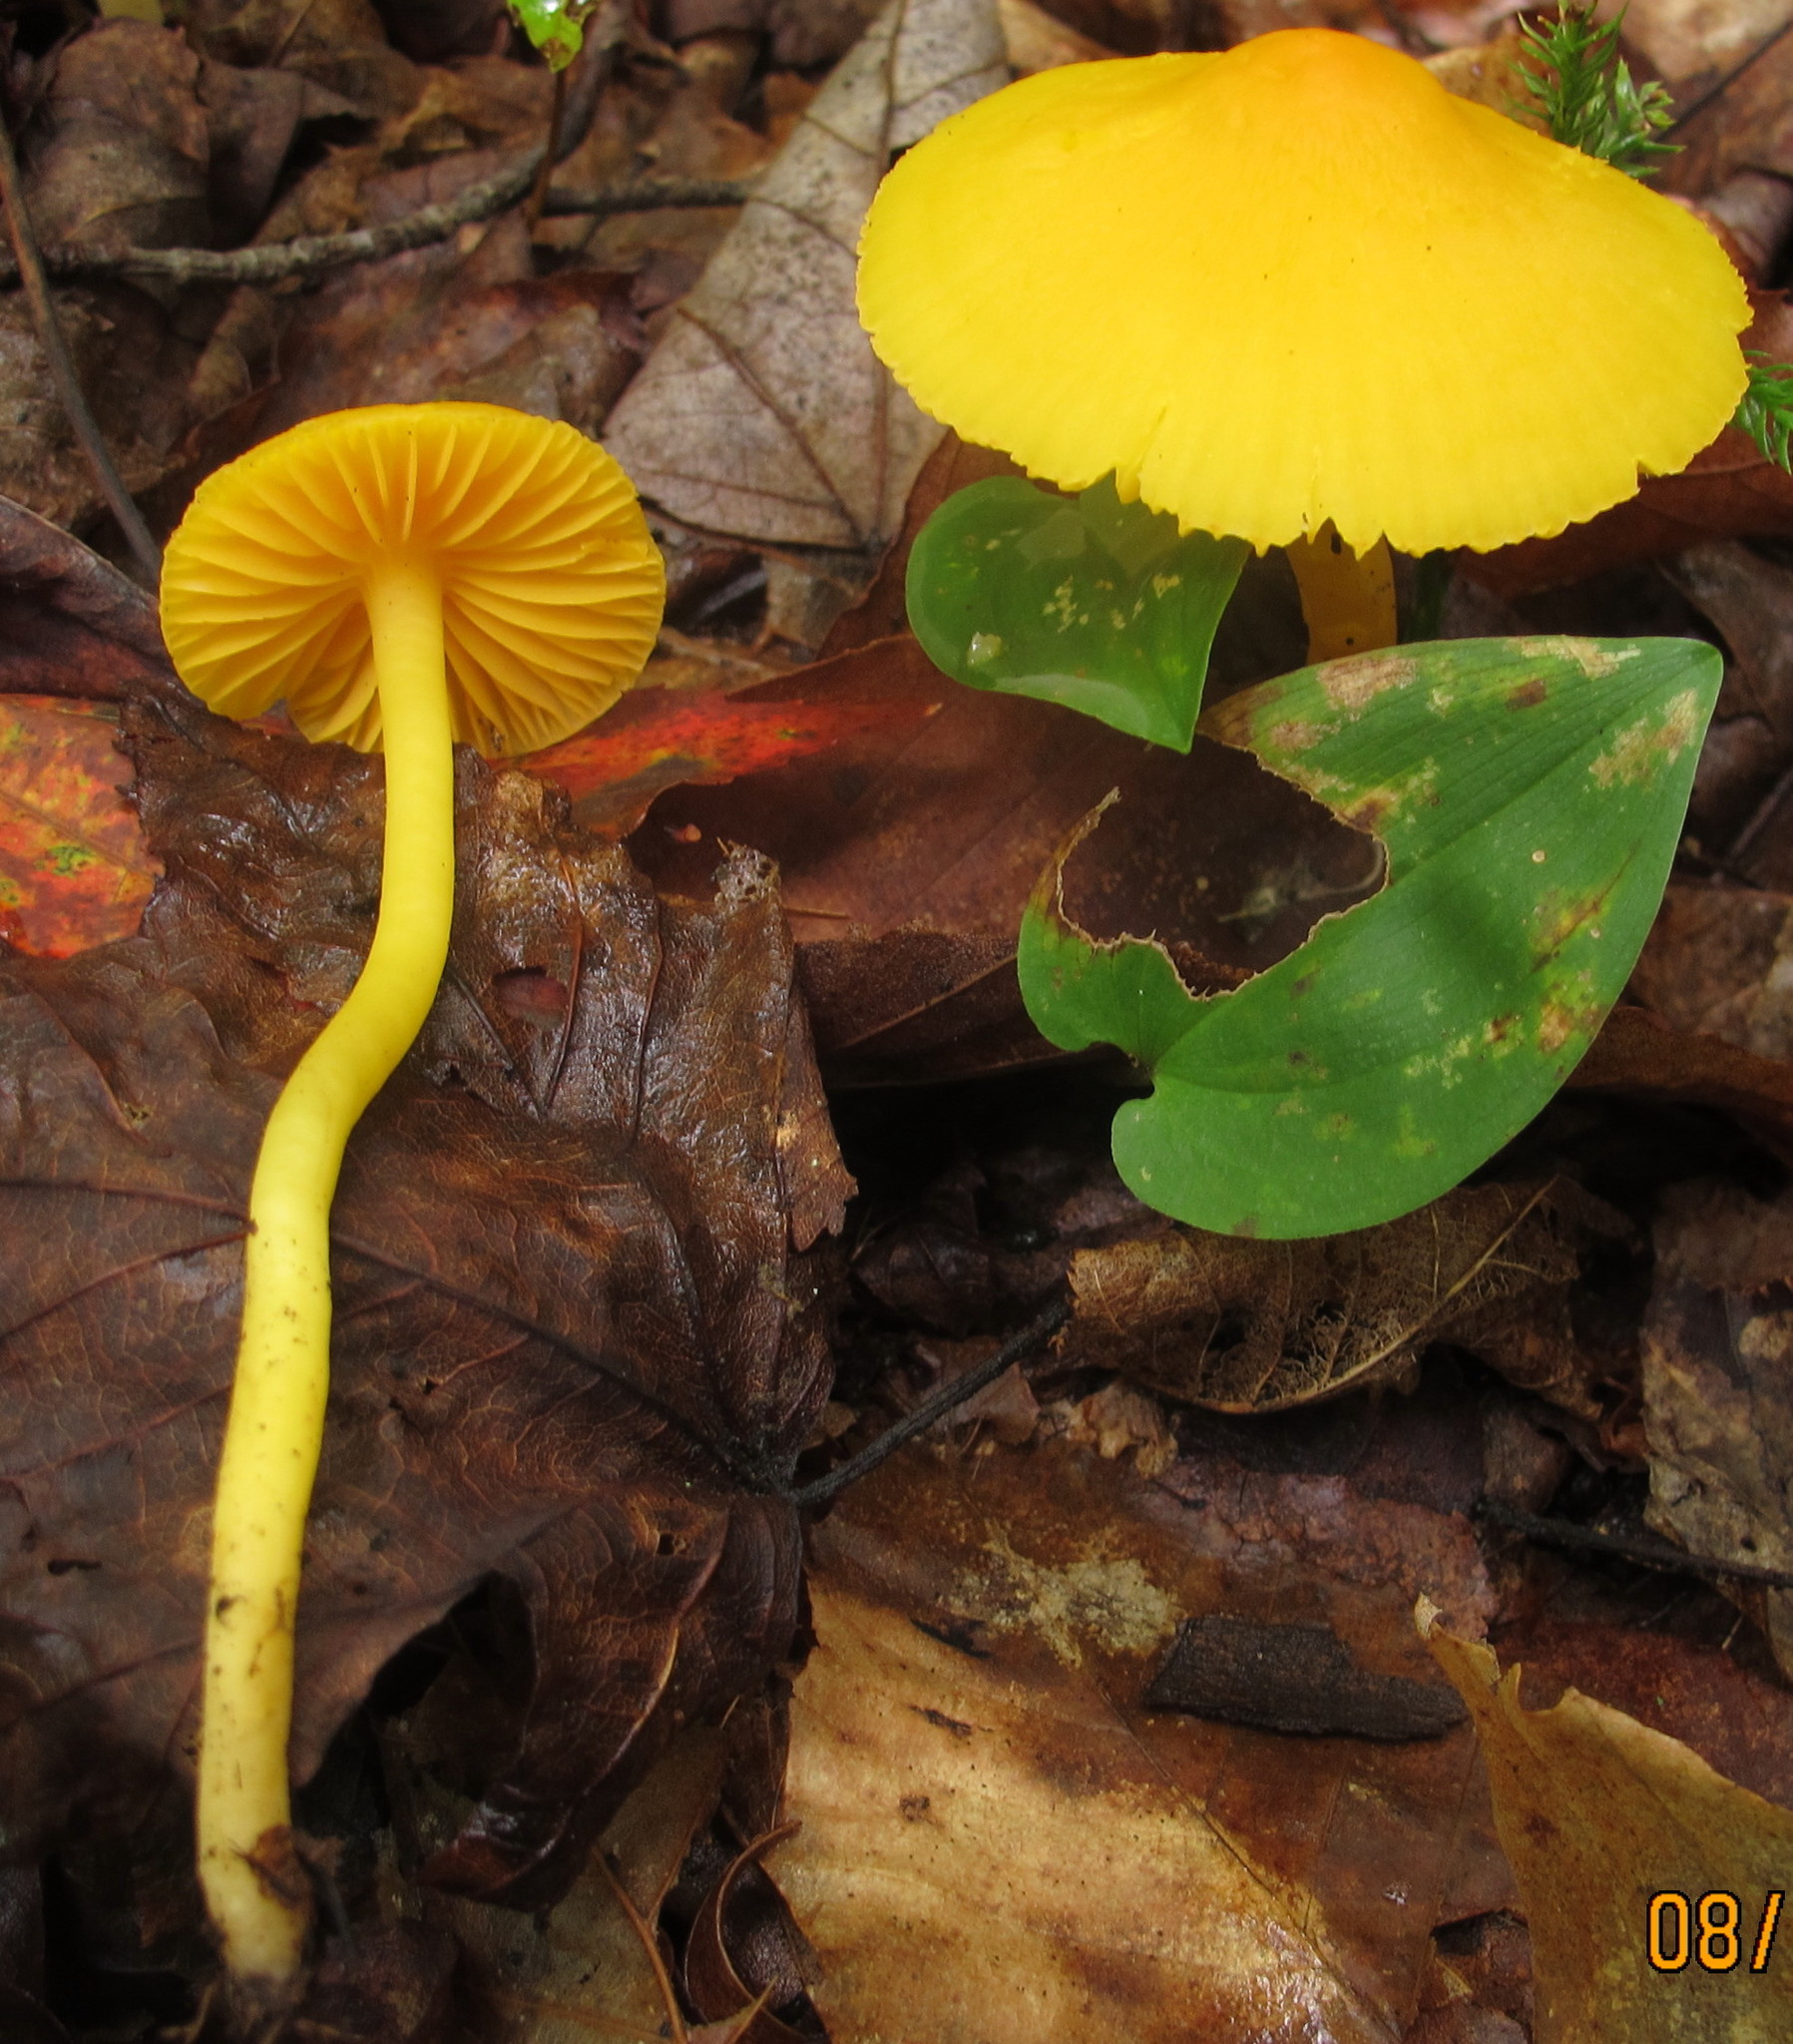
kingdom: Fungi
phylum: Basidiomycota
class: Agaricomycetes
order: Agaricales
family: Hygrophoraceae
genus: Humidicutis
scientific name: Humidicutis marginata
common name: Orange gilled waxcap
